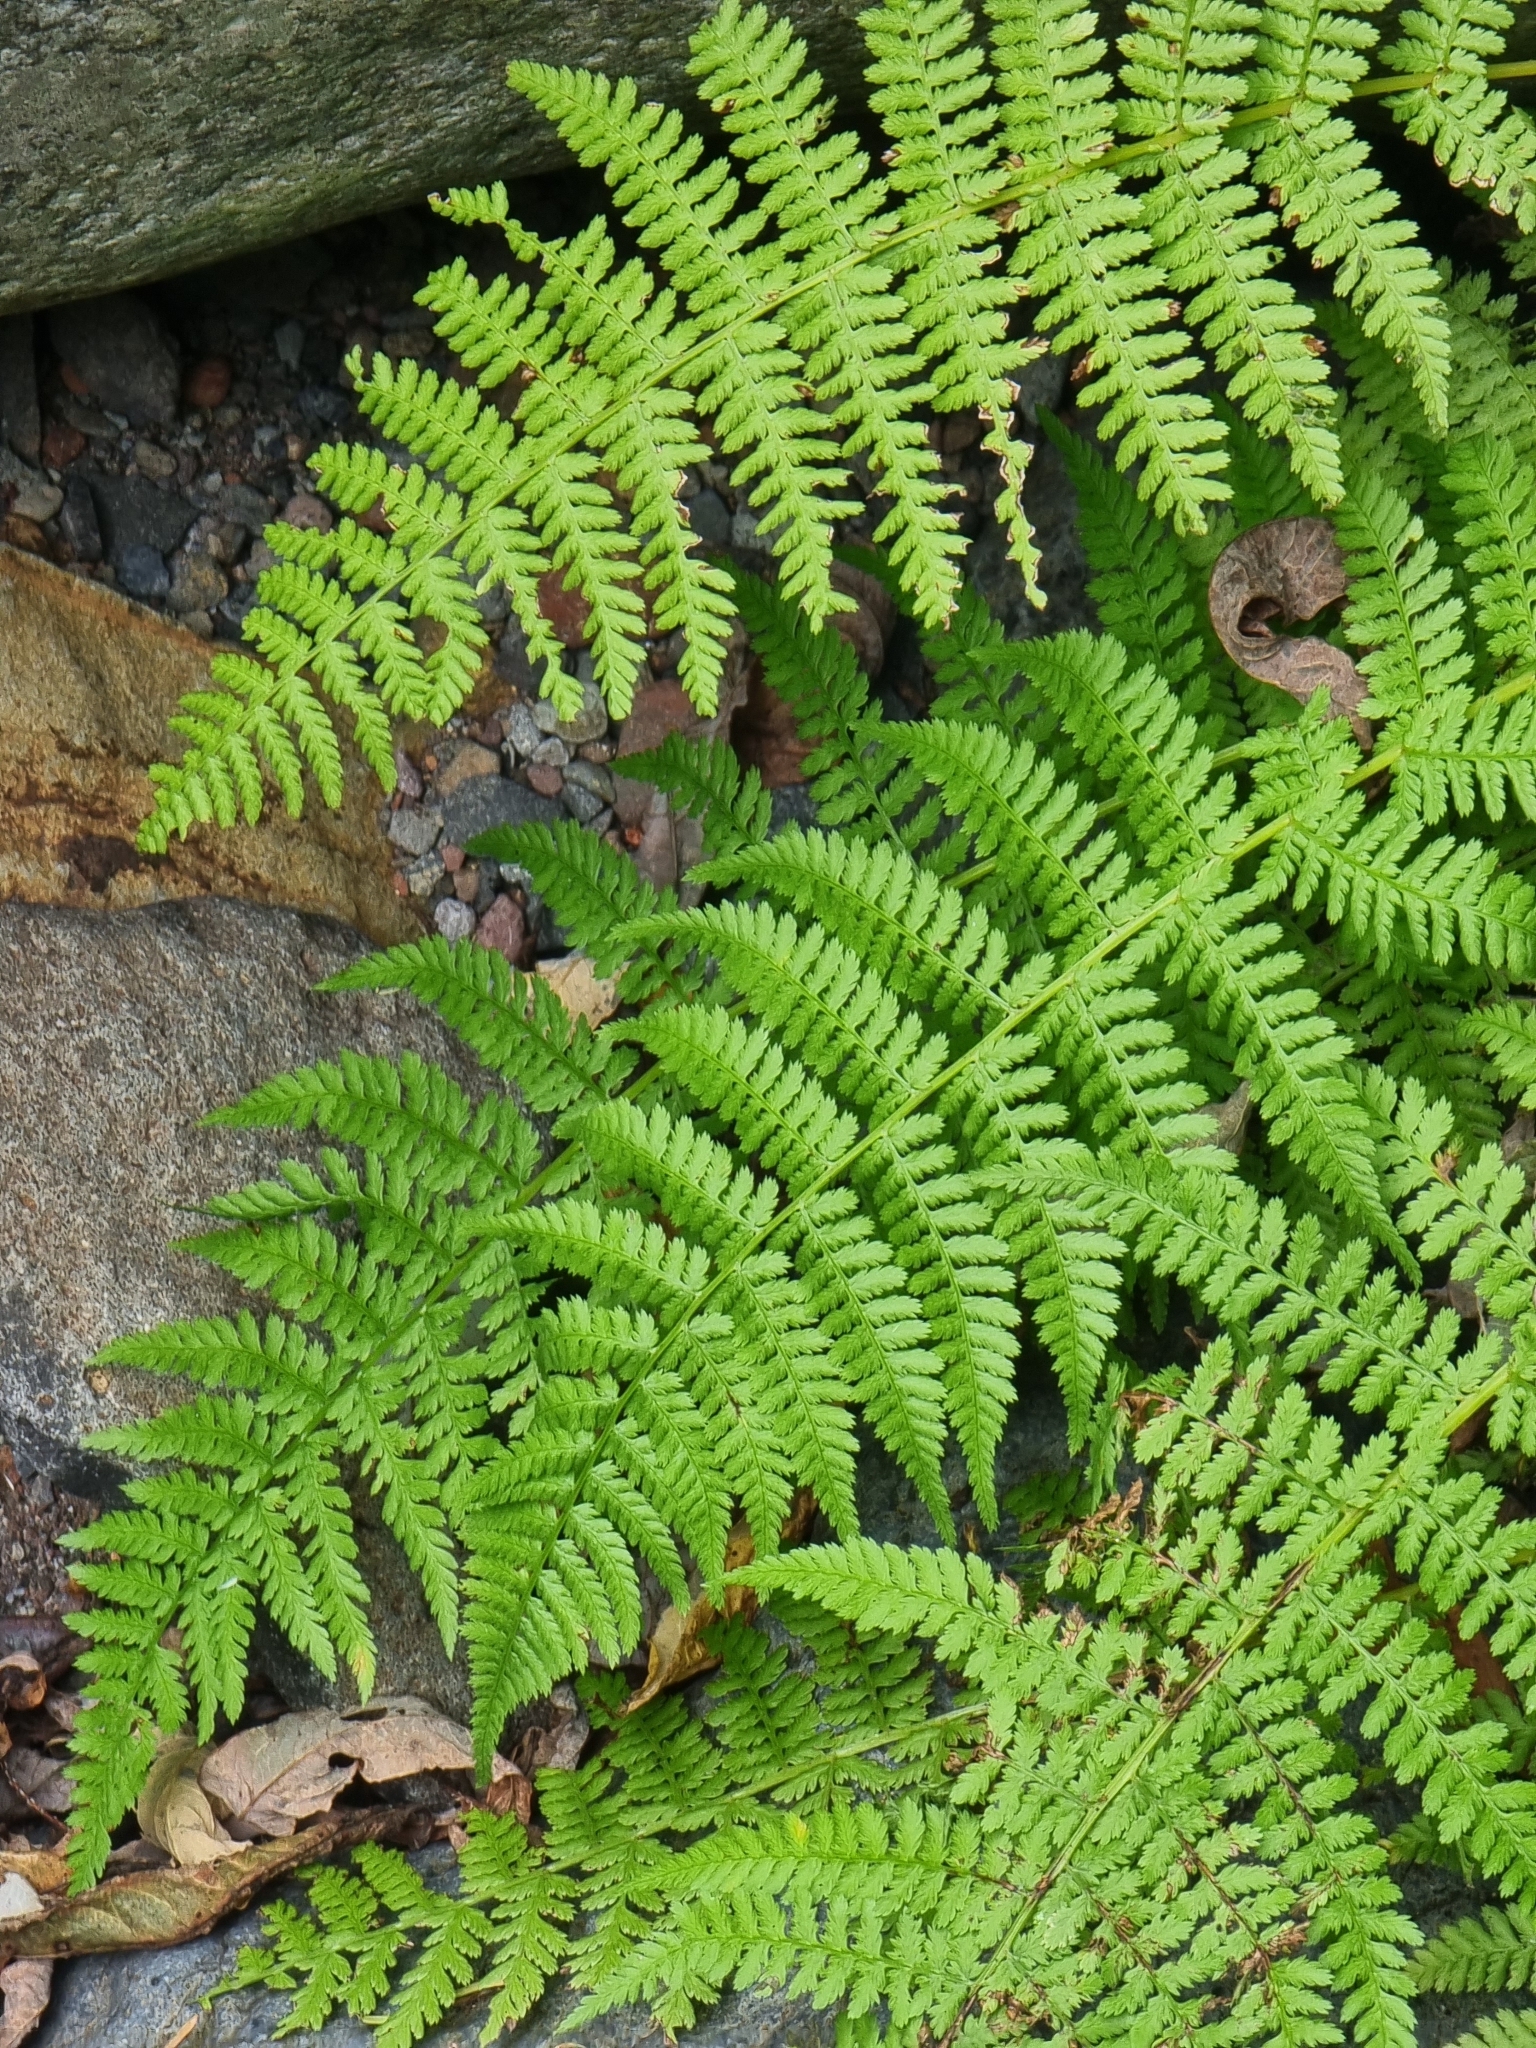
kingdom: Plantae
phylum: Tracheophyta
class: Polypodiopsida
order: Polypodiales
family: Athyriaceae
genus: Athyrium
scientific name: Athyrium filix-femina
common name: Lady fern
